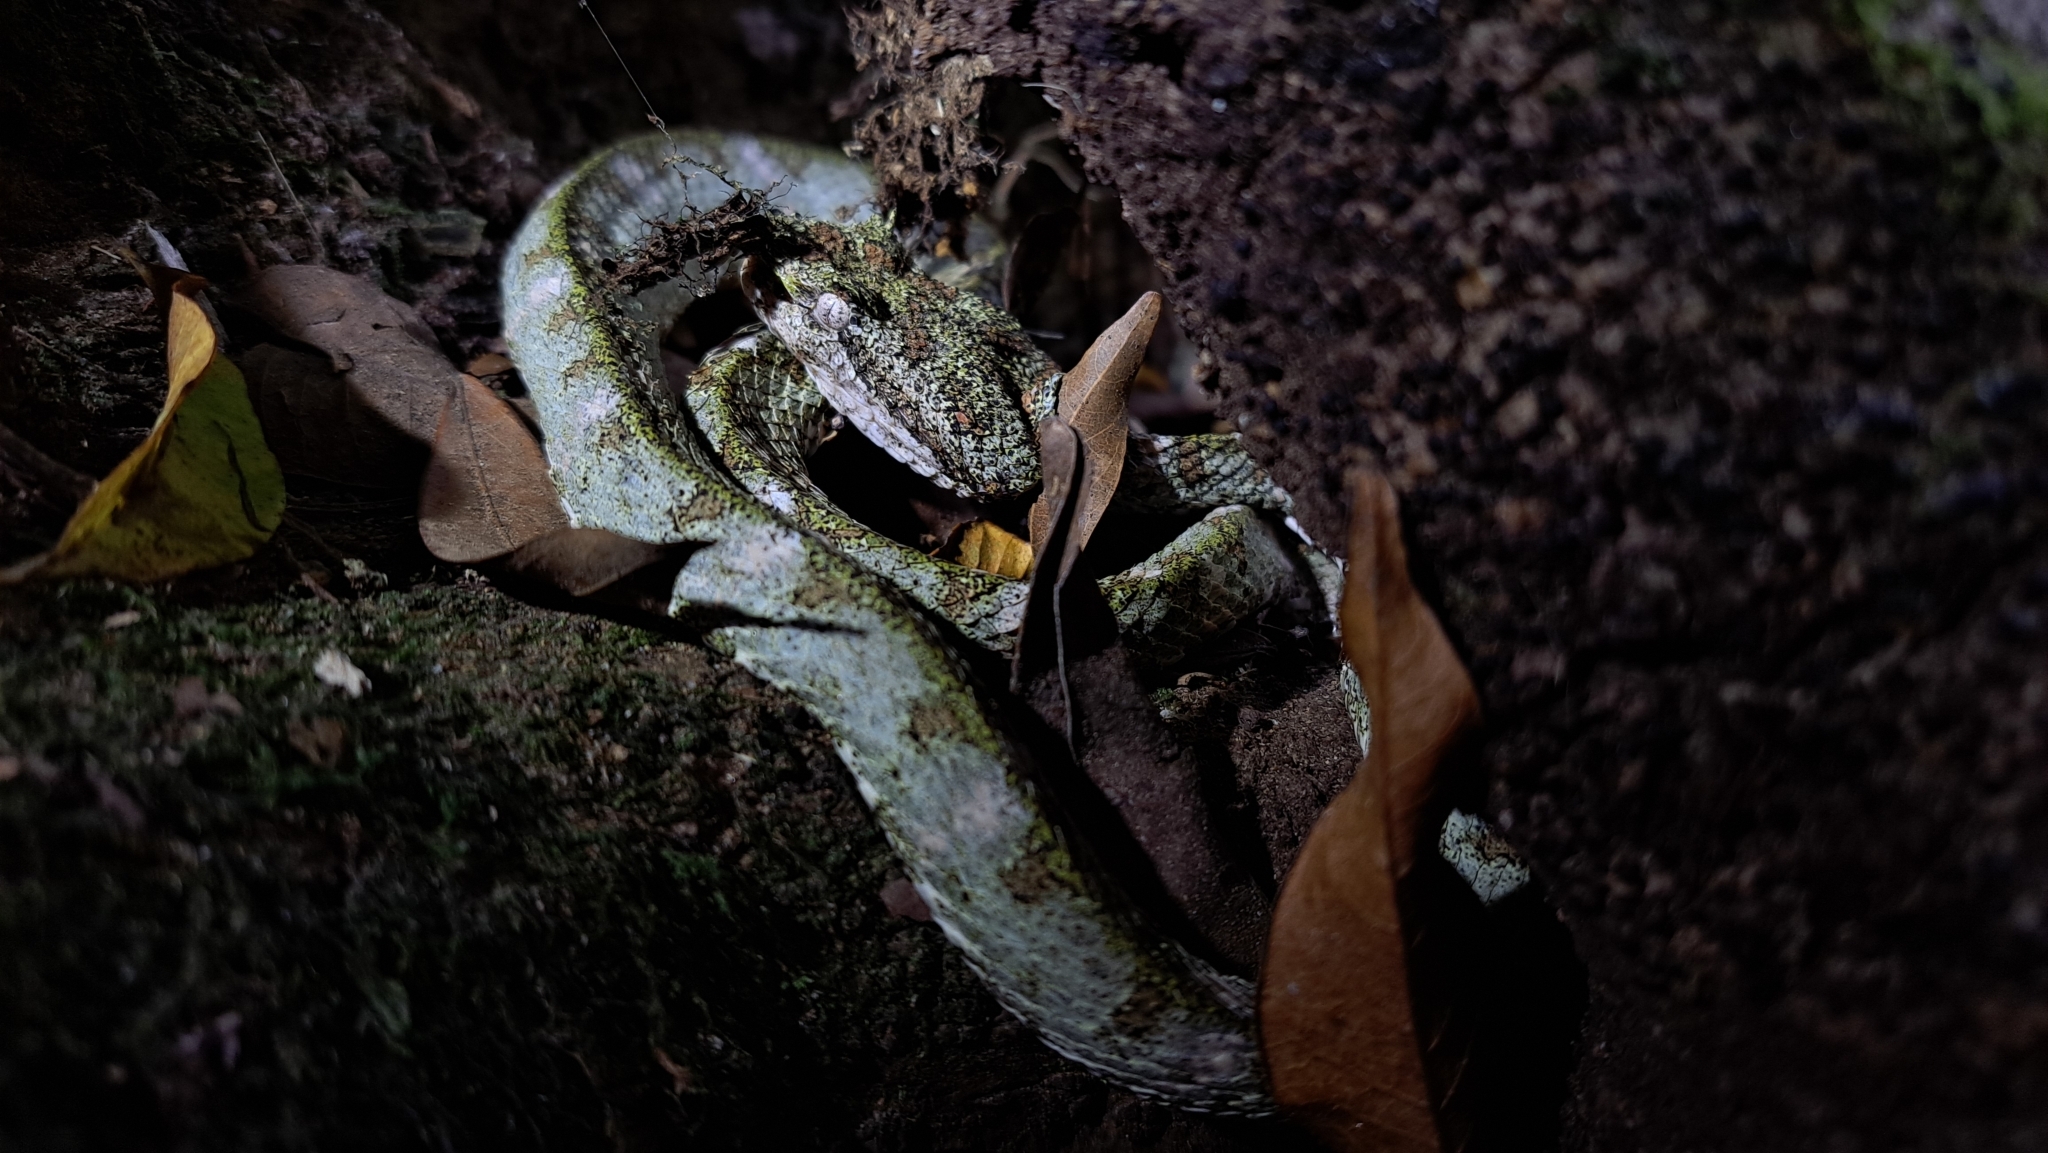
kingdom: Animalia
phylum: Chordata
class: Squamata
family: Viperidae
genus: Bothriechis
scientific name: Bothriechis schlegelii
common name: Eyelash viper
